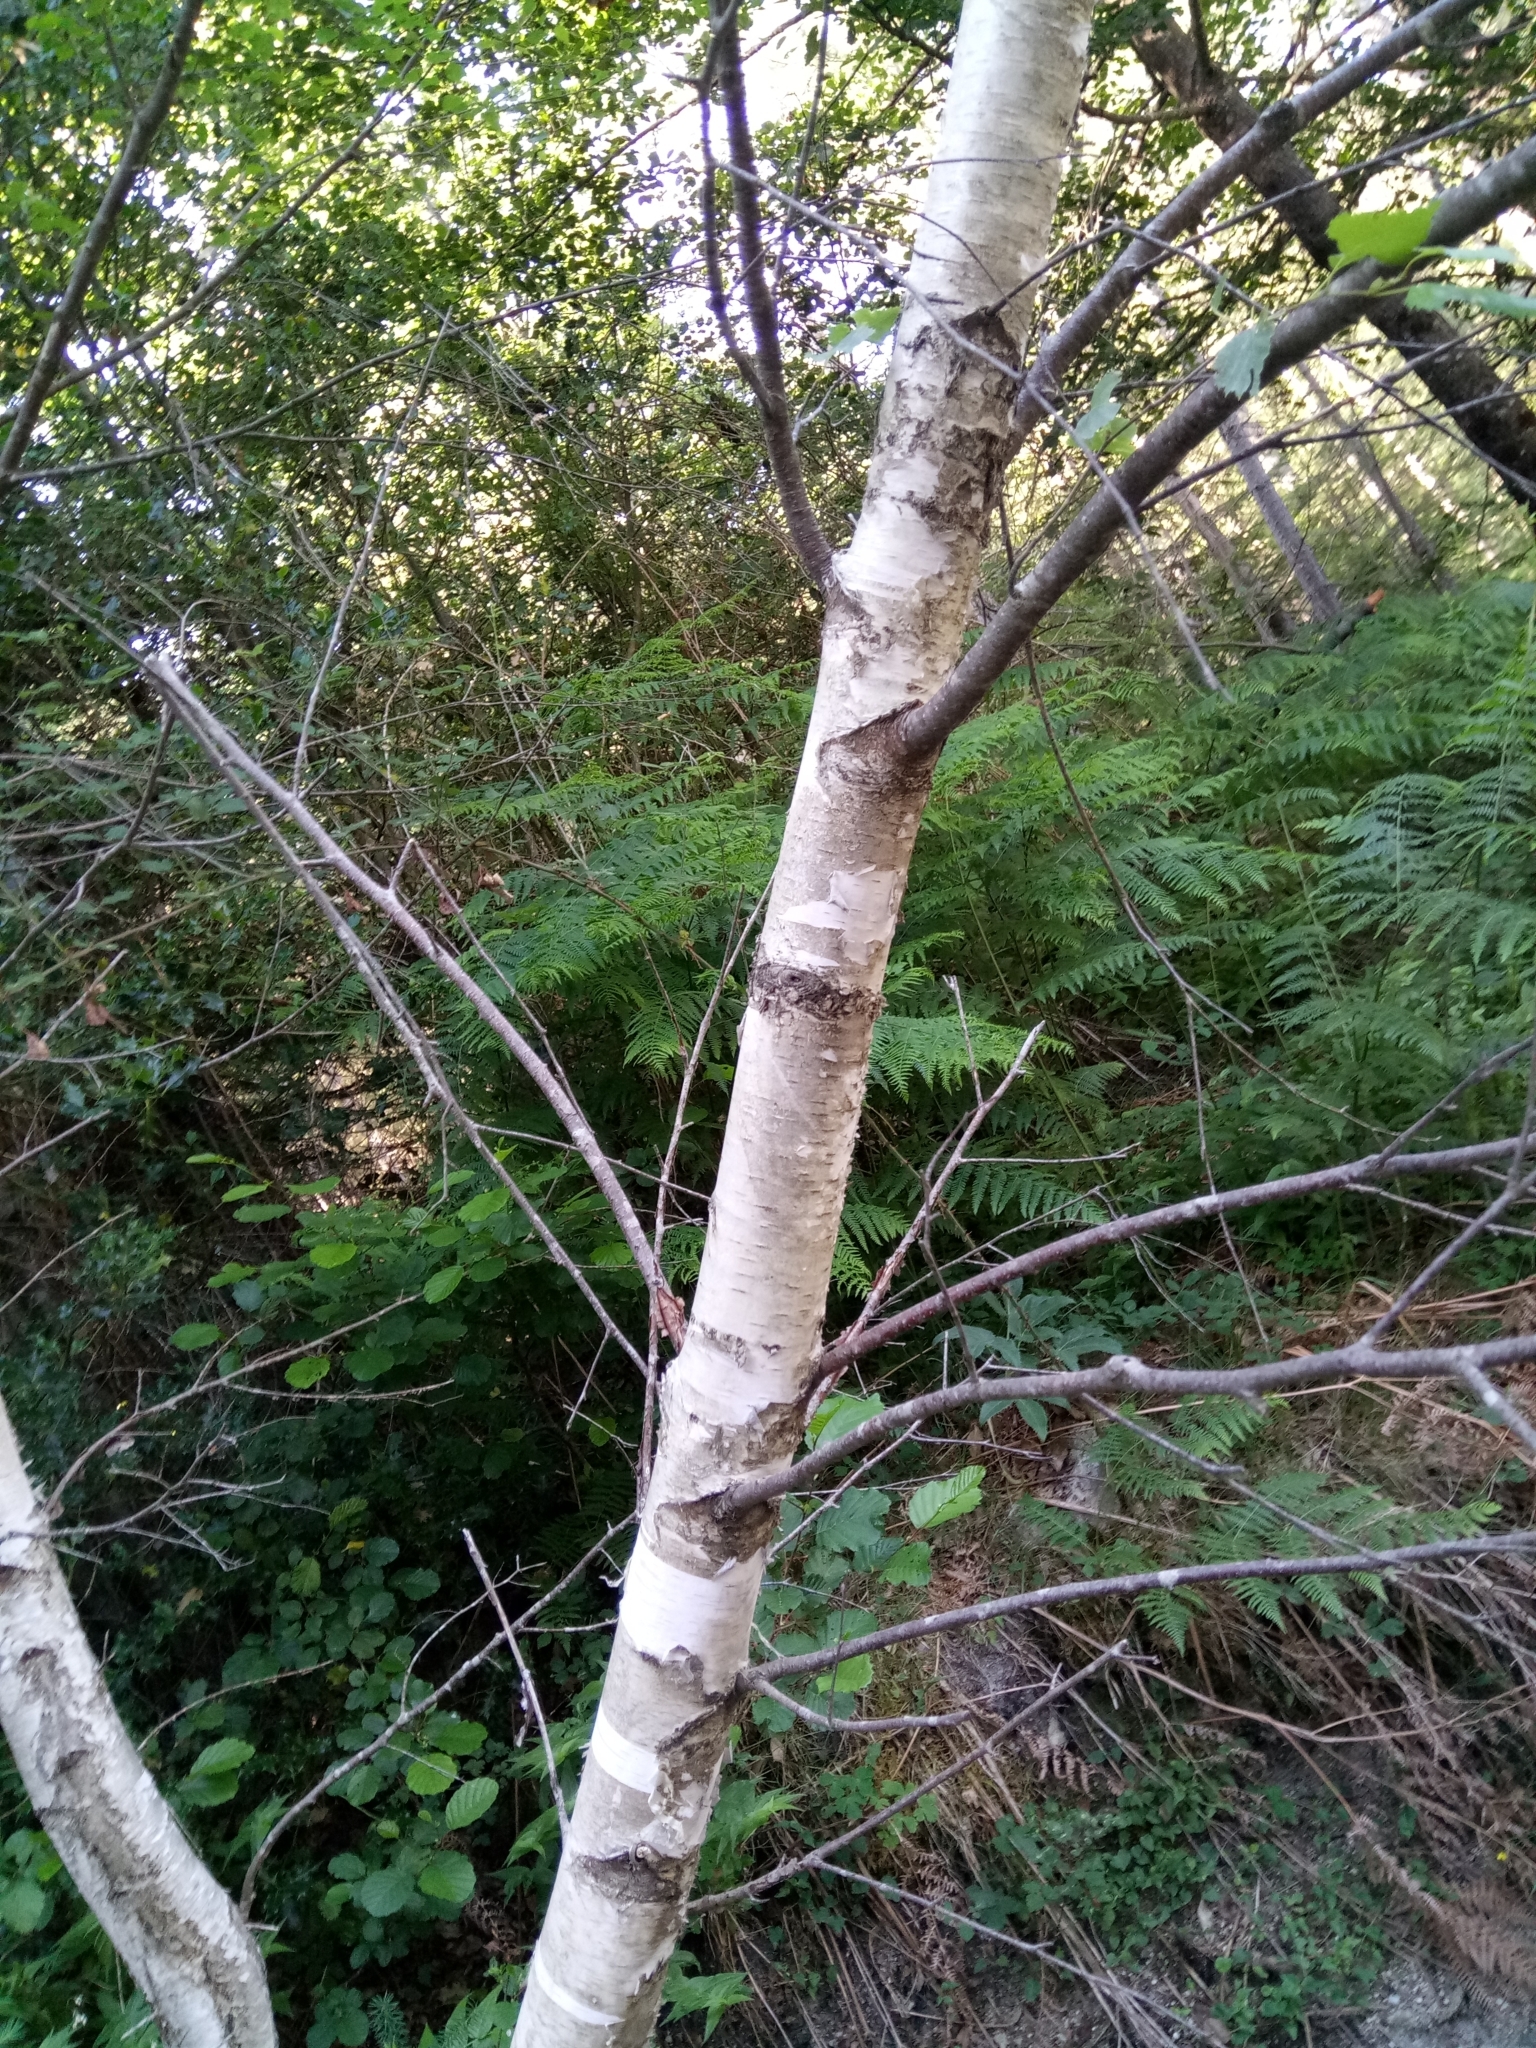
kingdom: Plantae
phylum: Tracheophyta
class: Magnoliopsida
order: Fagales
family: Betulaceae
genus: Betula
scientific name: Betula pendula
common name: Silver birch
